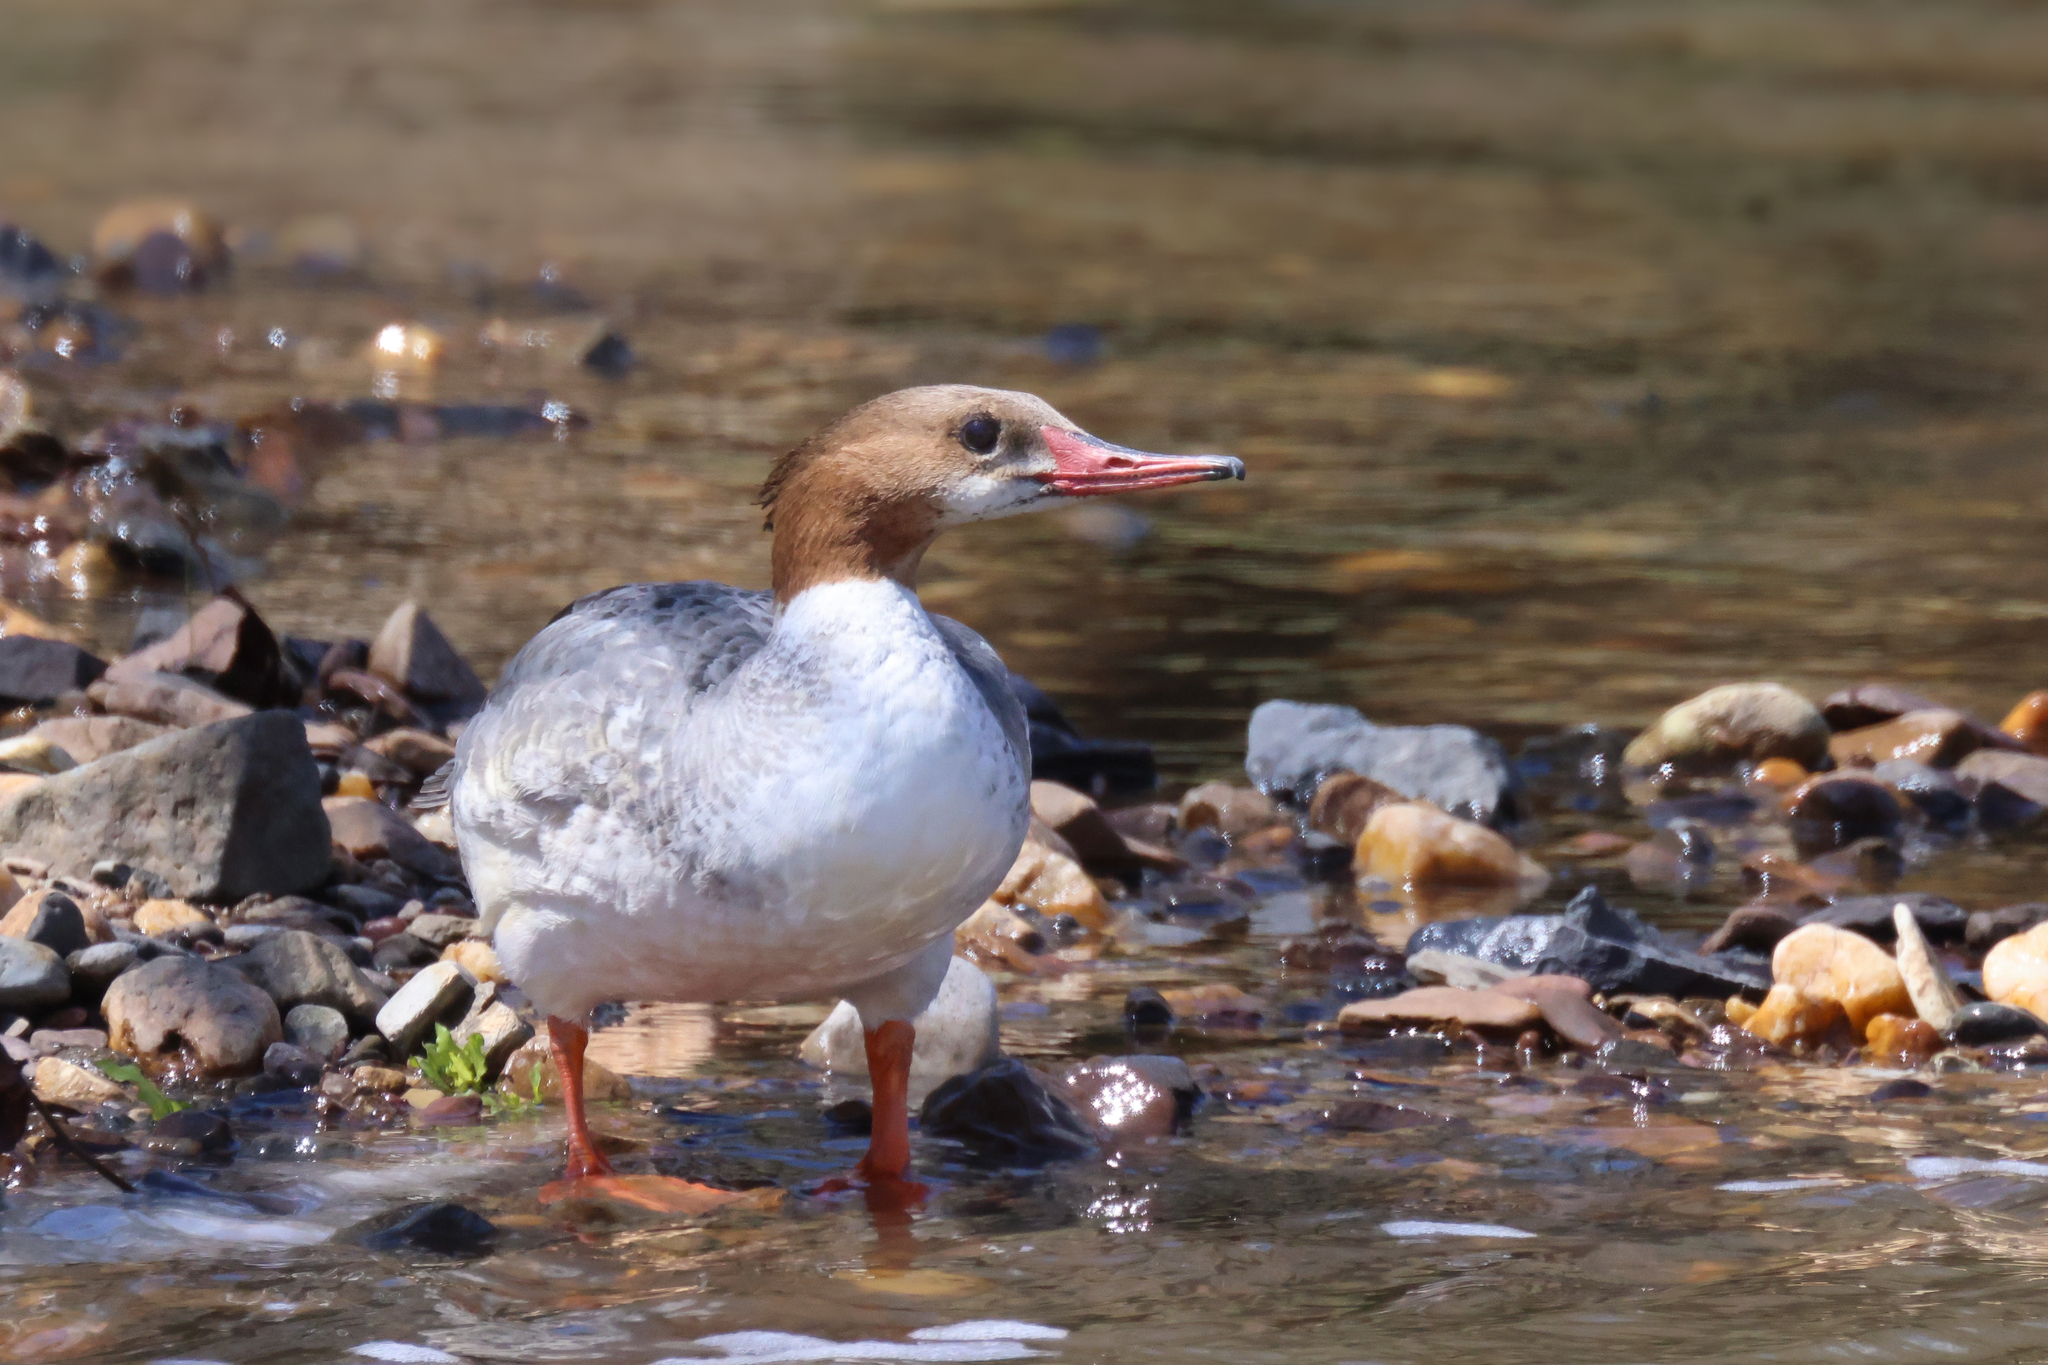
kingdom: Animalia
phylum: Chordata
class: Aves
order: Anseriformes
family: Anatidae
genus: Mergus
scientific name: Mergus merganser
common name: Common merganser
